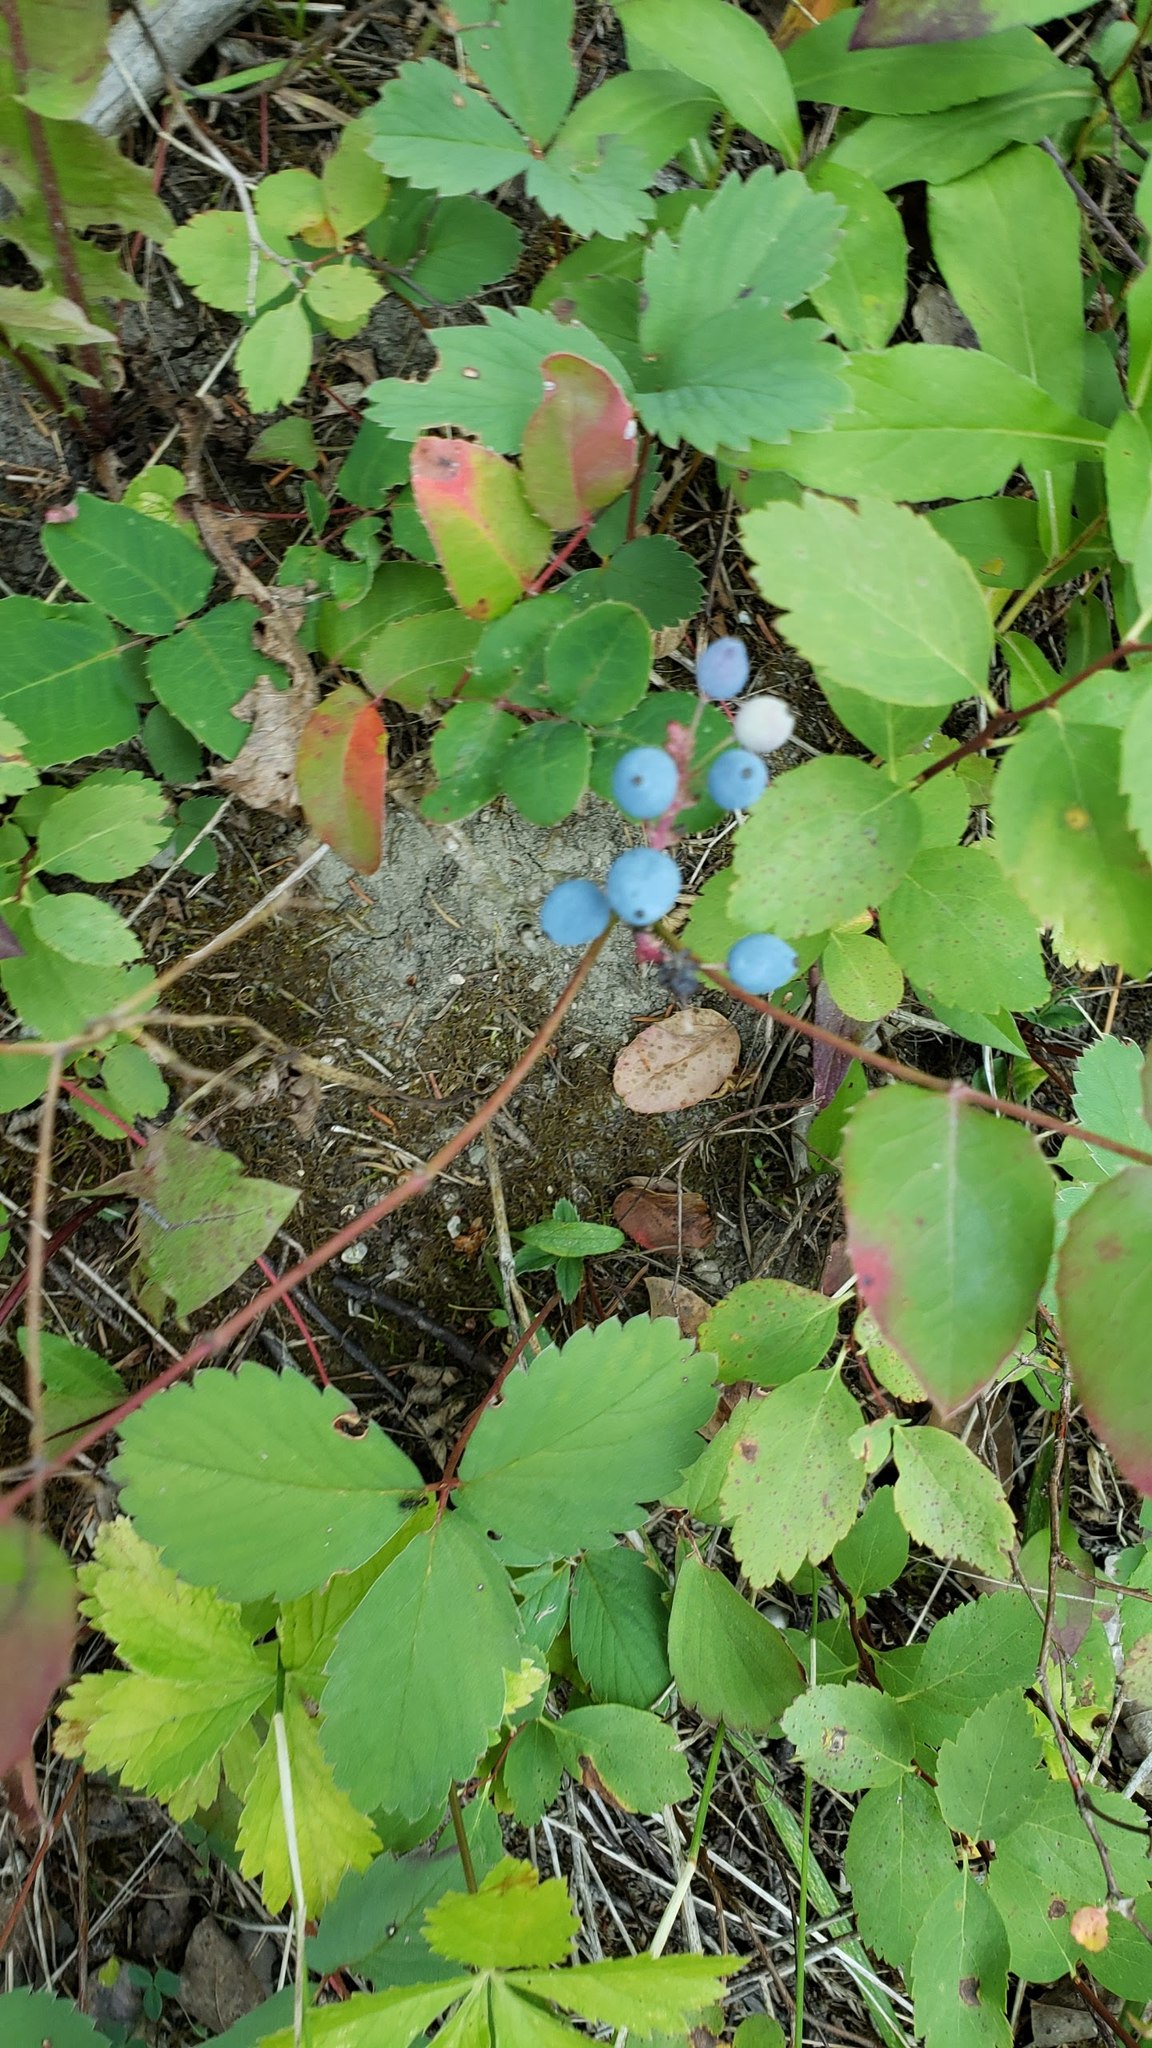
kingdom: Plantae
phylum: Tracheophyta
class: Magnoliopsida
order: Ranunculales
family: Berberidaceae
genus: Mahonia
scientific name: Mahonia repens
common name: Creeping oregon-grape
